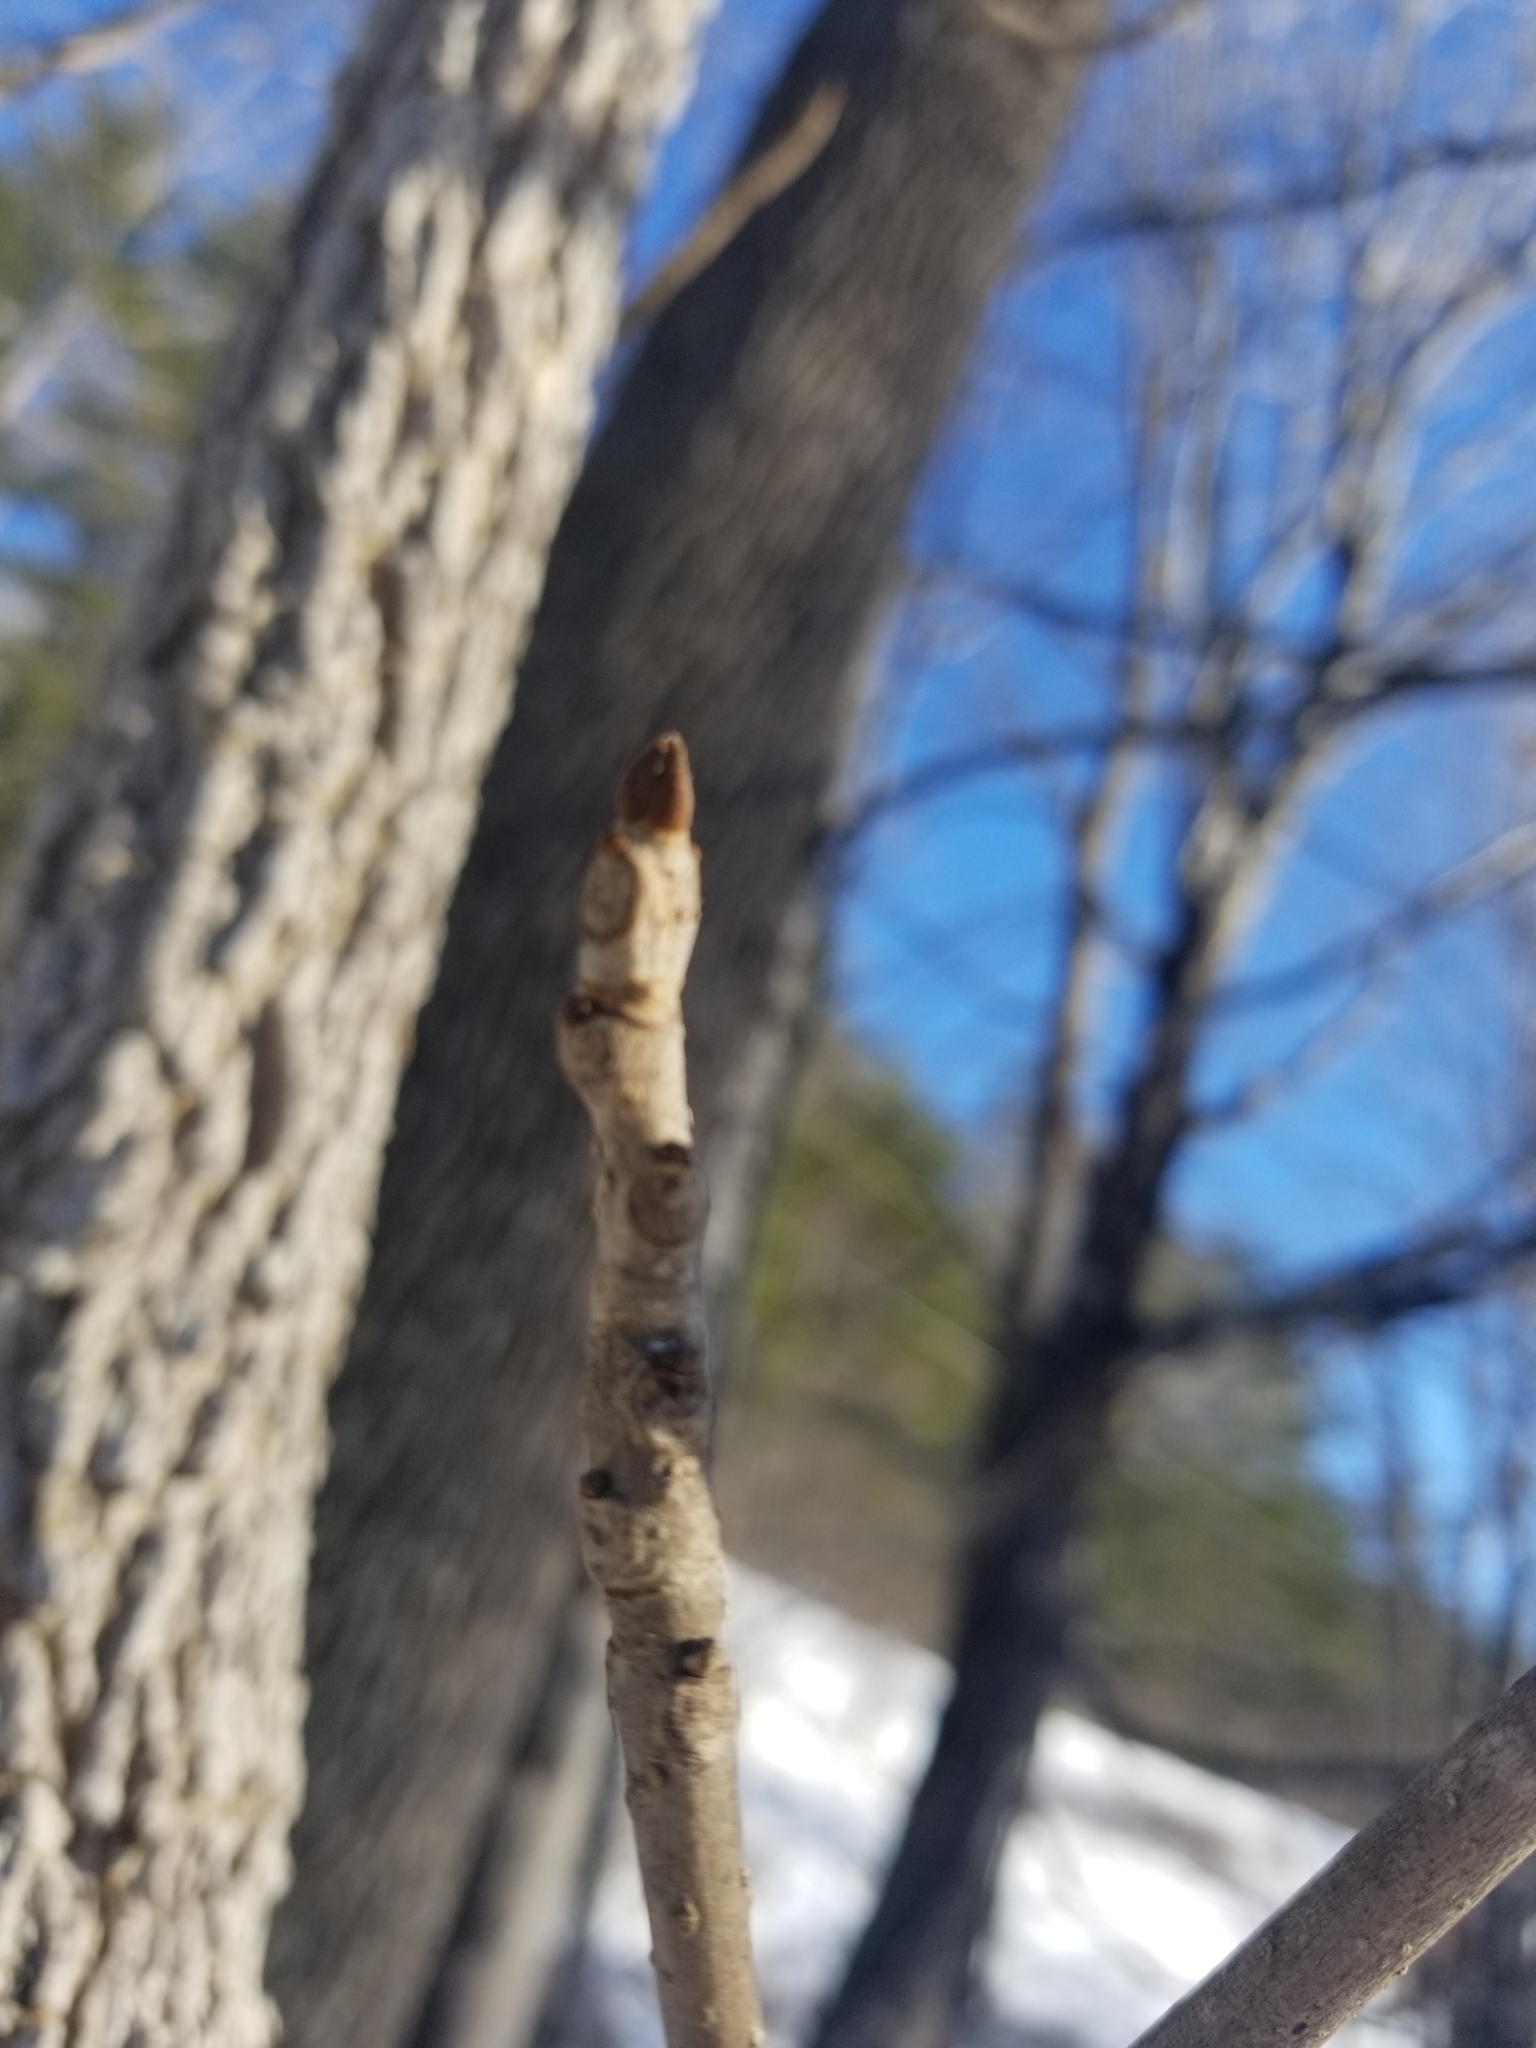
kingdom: Plantae
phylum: Tracheophyta
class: Magnoliopsida
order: Lamiales
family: Oleaceae
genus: Fraxinus
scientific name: Fraxinus nigra
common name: Black ash
